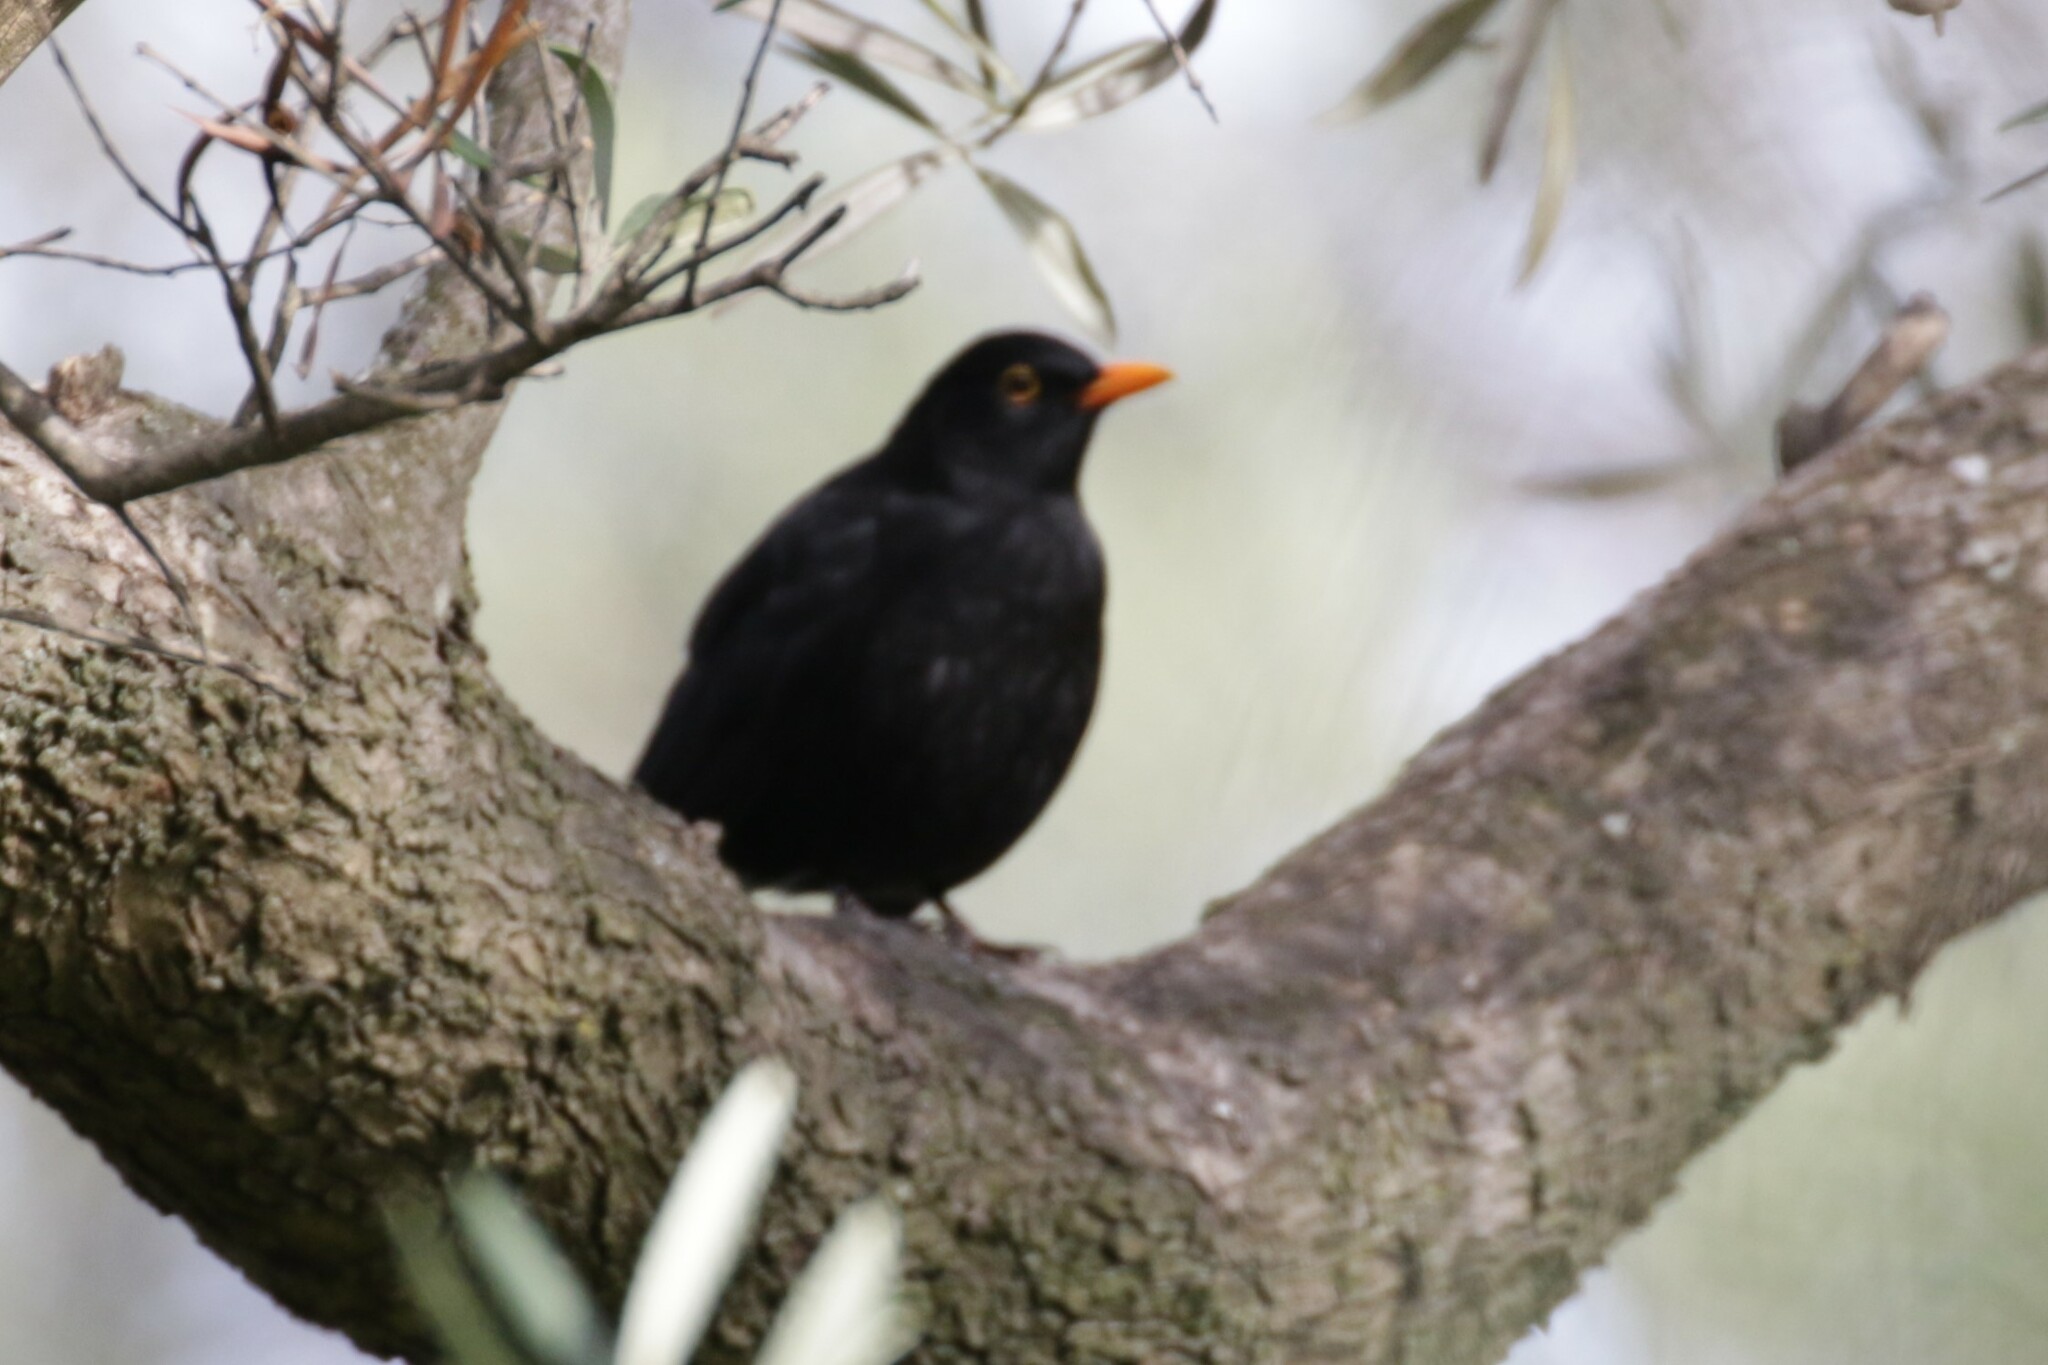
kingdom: Animalia
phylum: Chordata
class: Aves
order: Passeriformes
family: Turdidae
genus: Turdus
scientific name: Turdus merula
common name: Common blackbird
